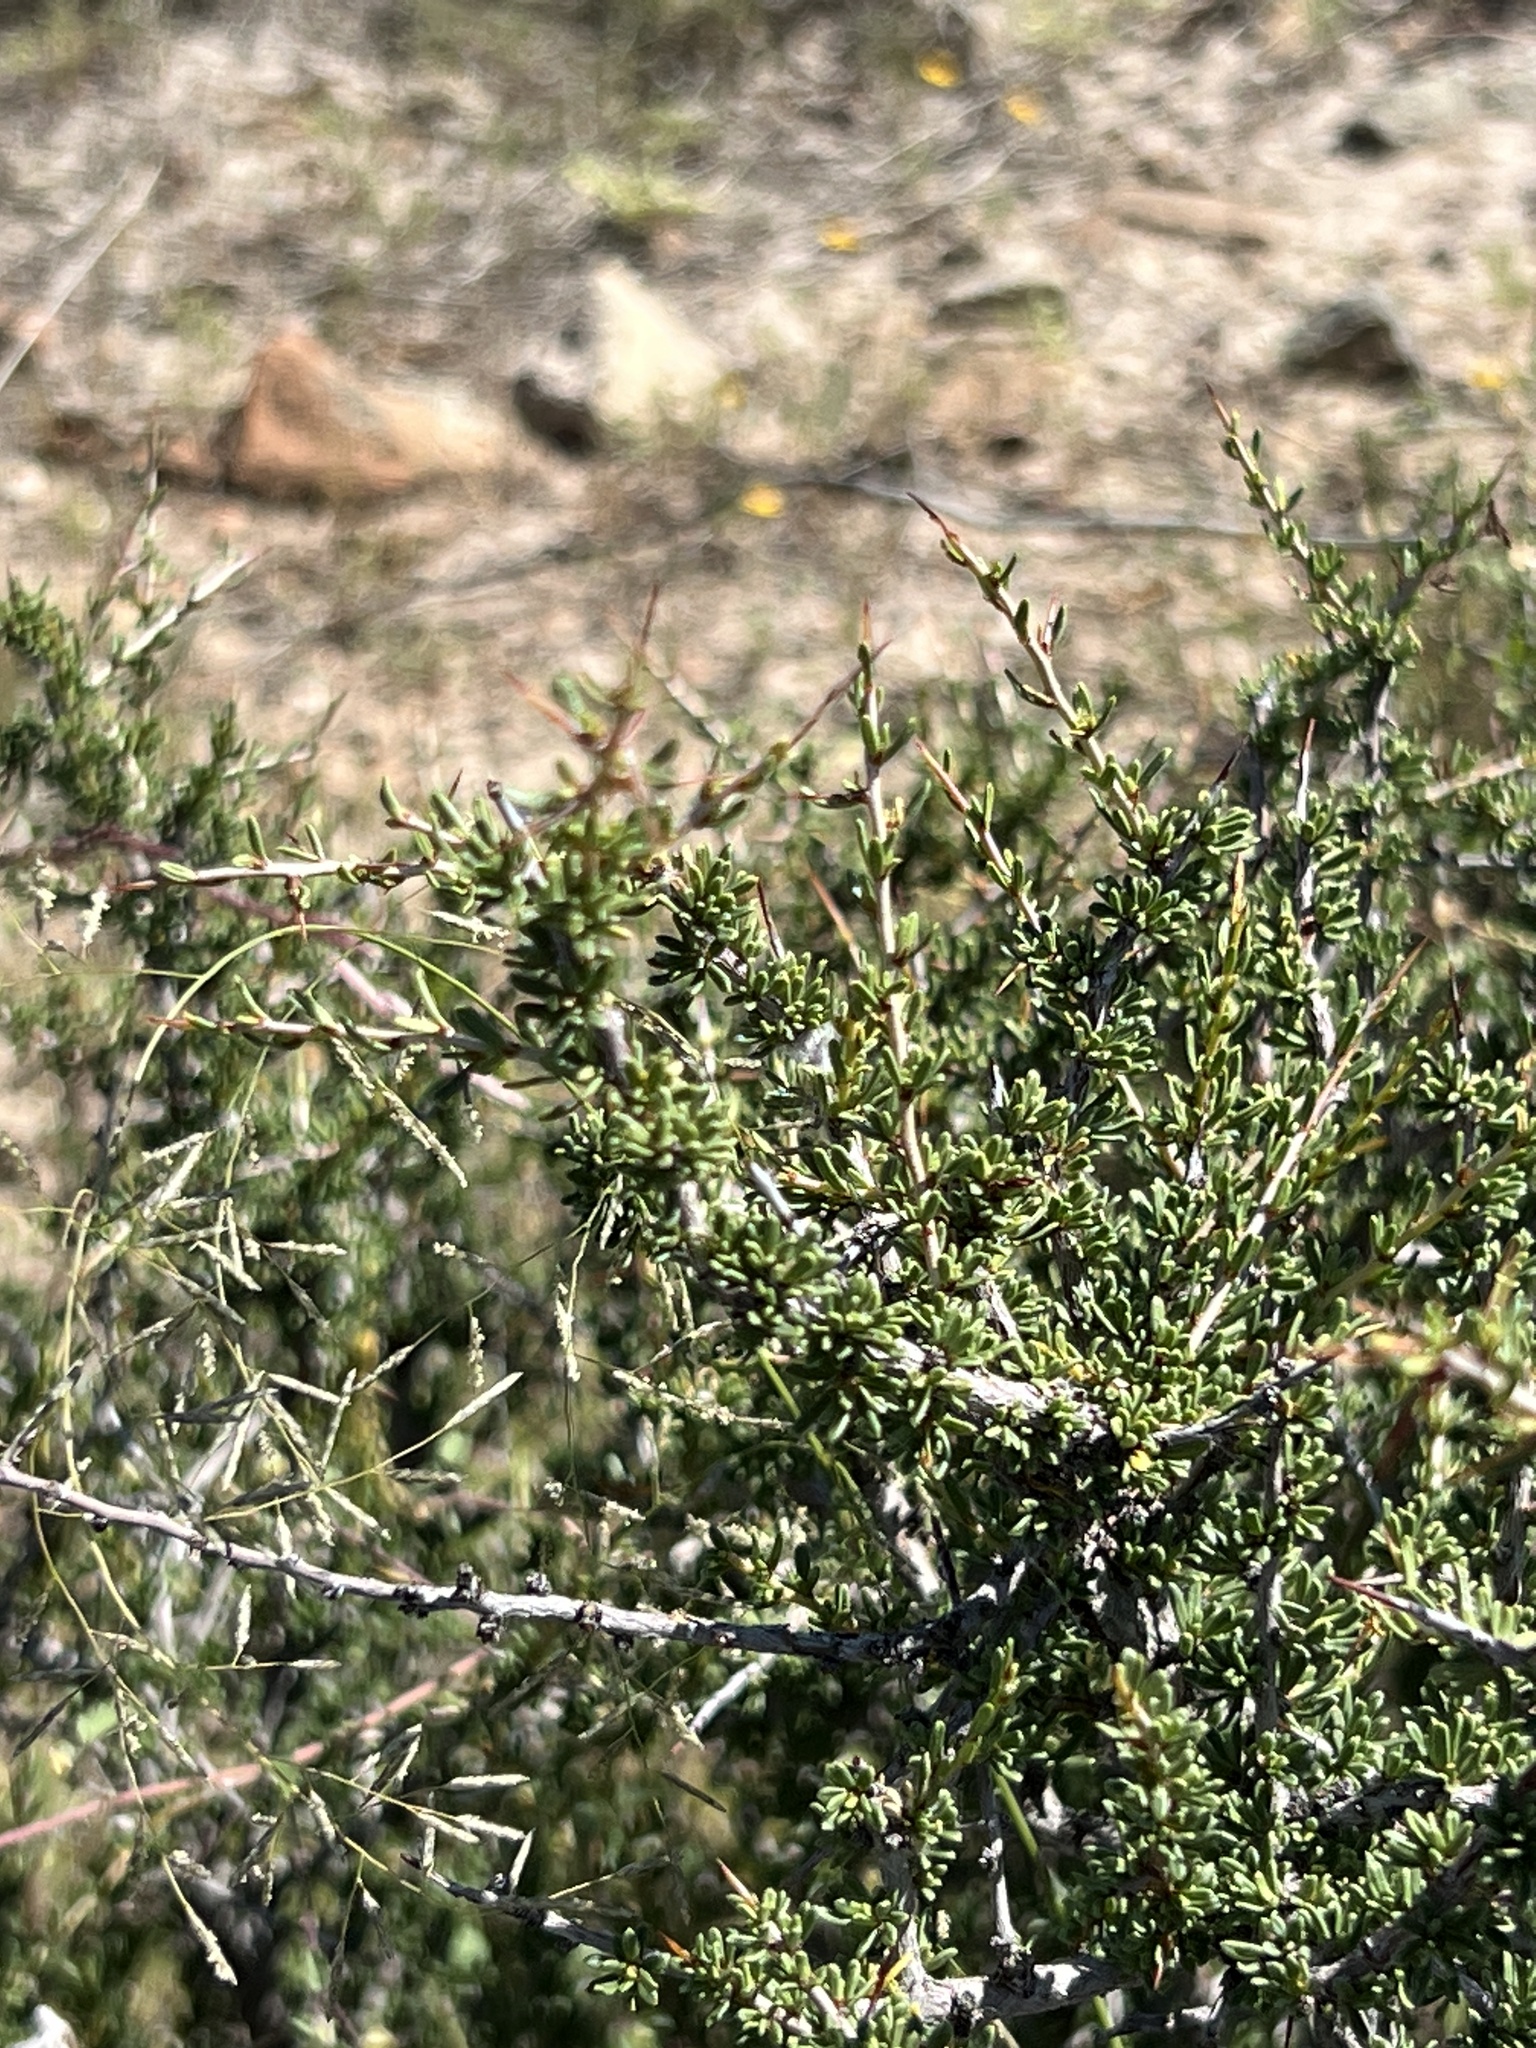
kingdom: Plantae
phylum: Tracheophyta
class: Magnoliopsida
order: Rosales
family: Rhamnaceae
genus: Condalia
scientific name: Condalia ericoides
